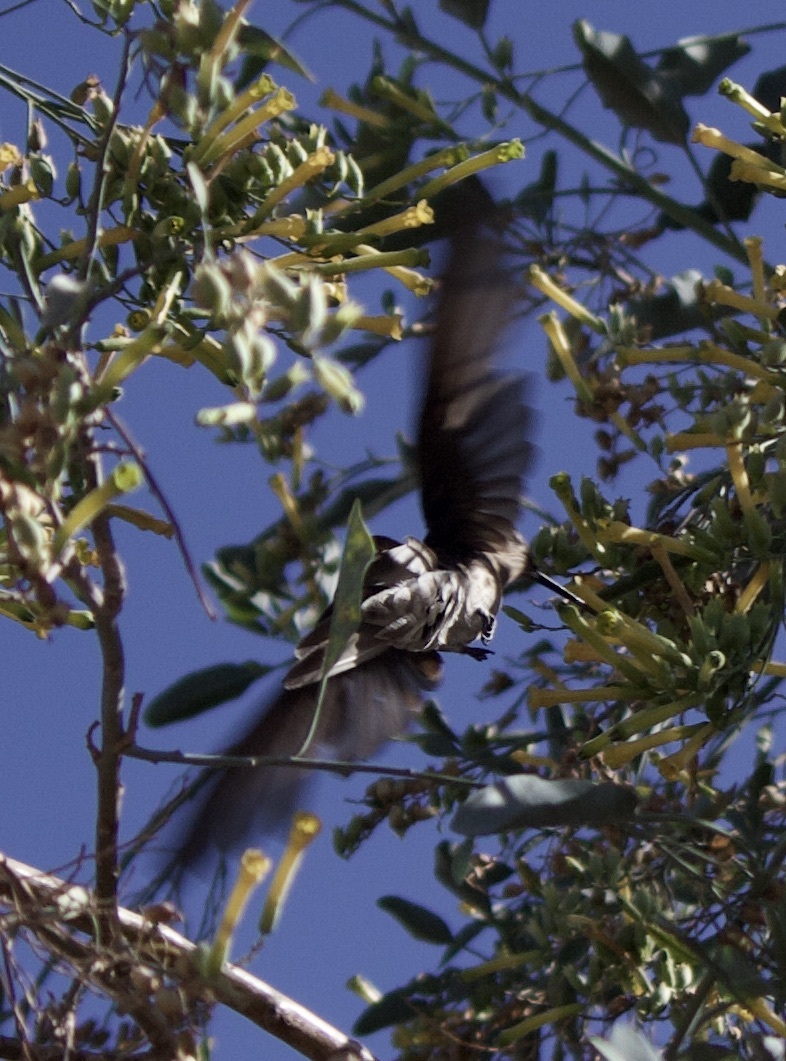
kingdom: Animalia
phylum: Chordata
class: Aves
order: Apodiformes
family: Trochilidae
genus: Patagona
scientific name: Patagona gigas
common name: Giant hummingbird
